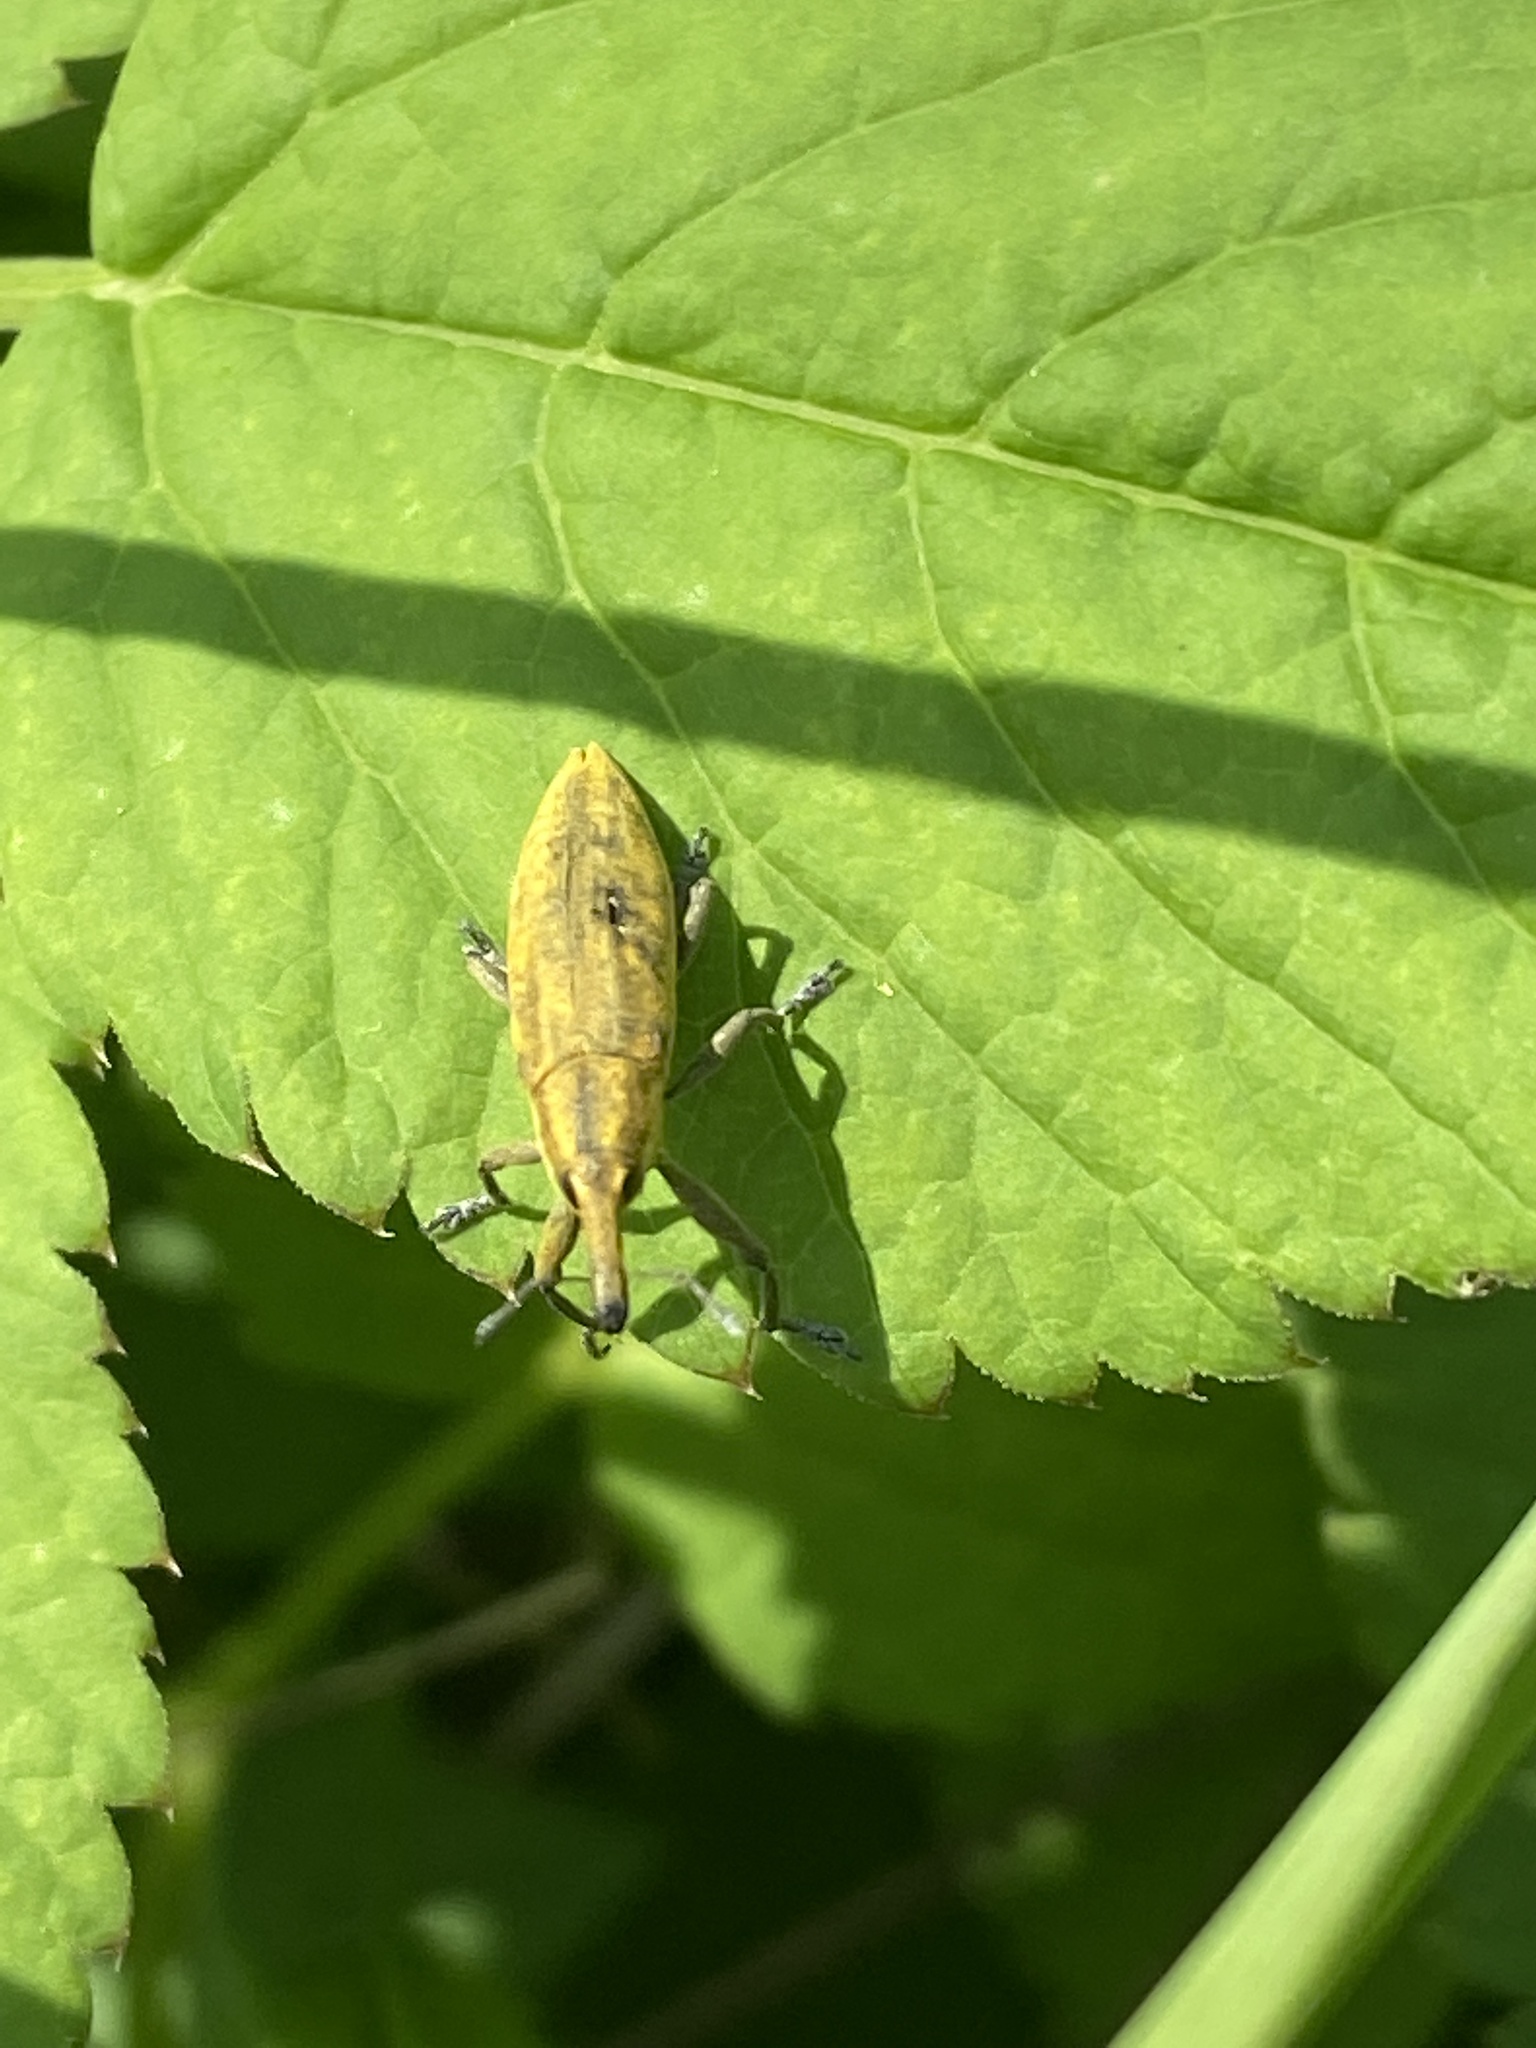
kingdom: Animalia
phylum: Arthropoda
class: Insecta
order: Coleoptera
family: Curculionidae
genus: Lixus
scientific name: Lixus iridis
